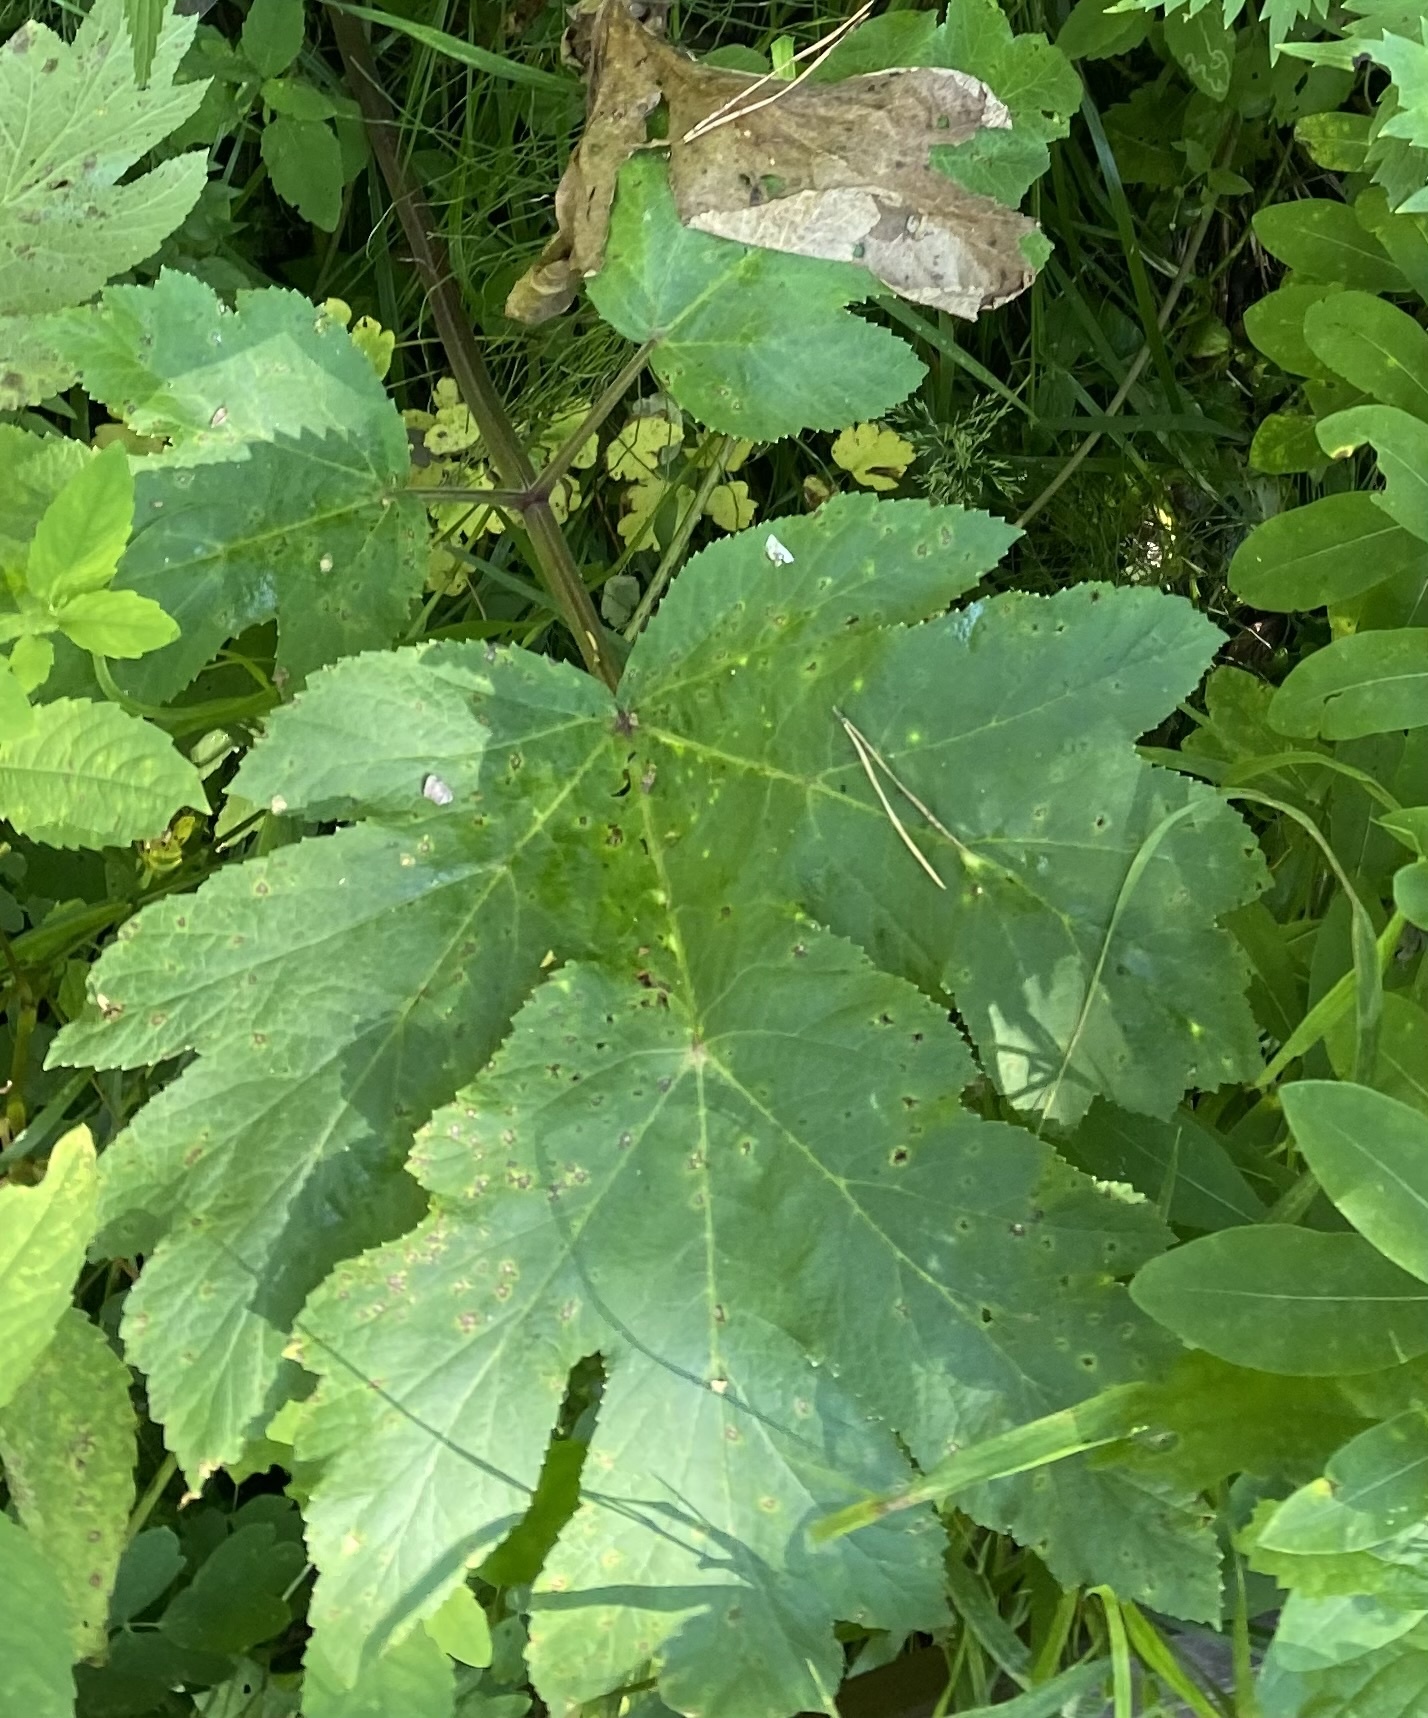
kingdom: Plantae
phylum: Tracheophyta
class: Magnoliopsida
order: Apiales
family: Apiaceae
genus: Heracleum
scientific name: Heracleum dissectum
